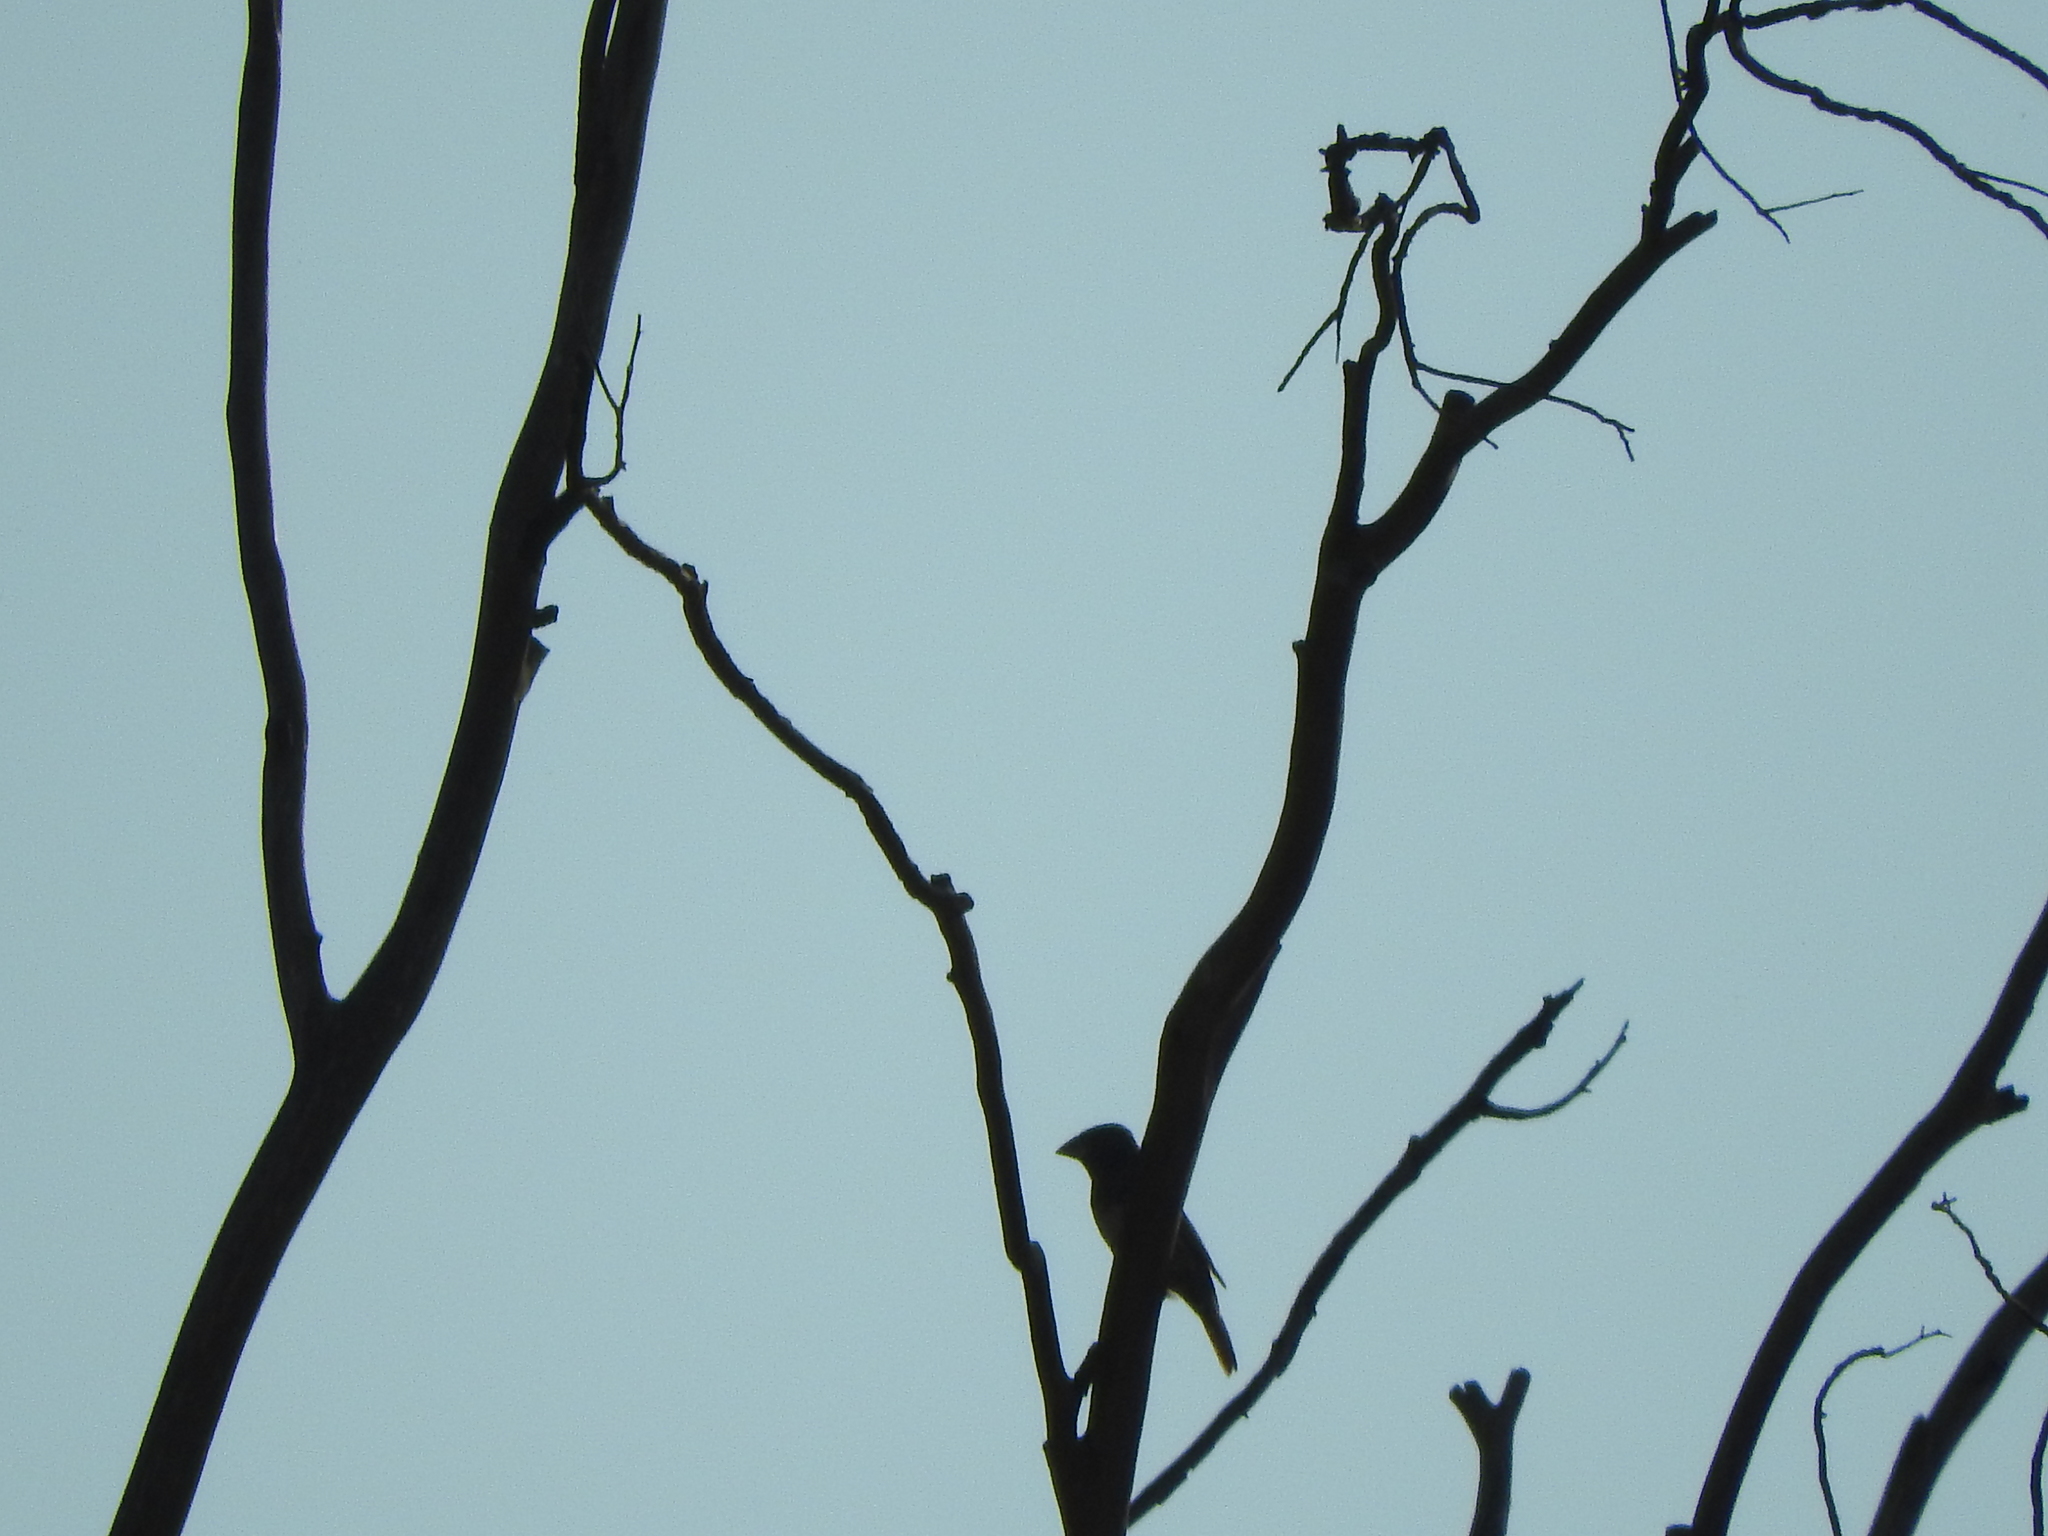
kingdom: Animalia
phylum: Chordata
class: Aves
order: Passeriformes
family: Cardinalidae
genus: Passerina
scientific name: Passerina caerulea
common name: Blue grosbeak
